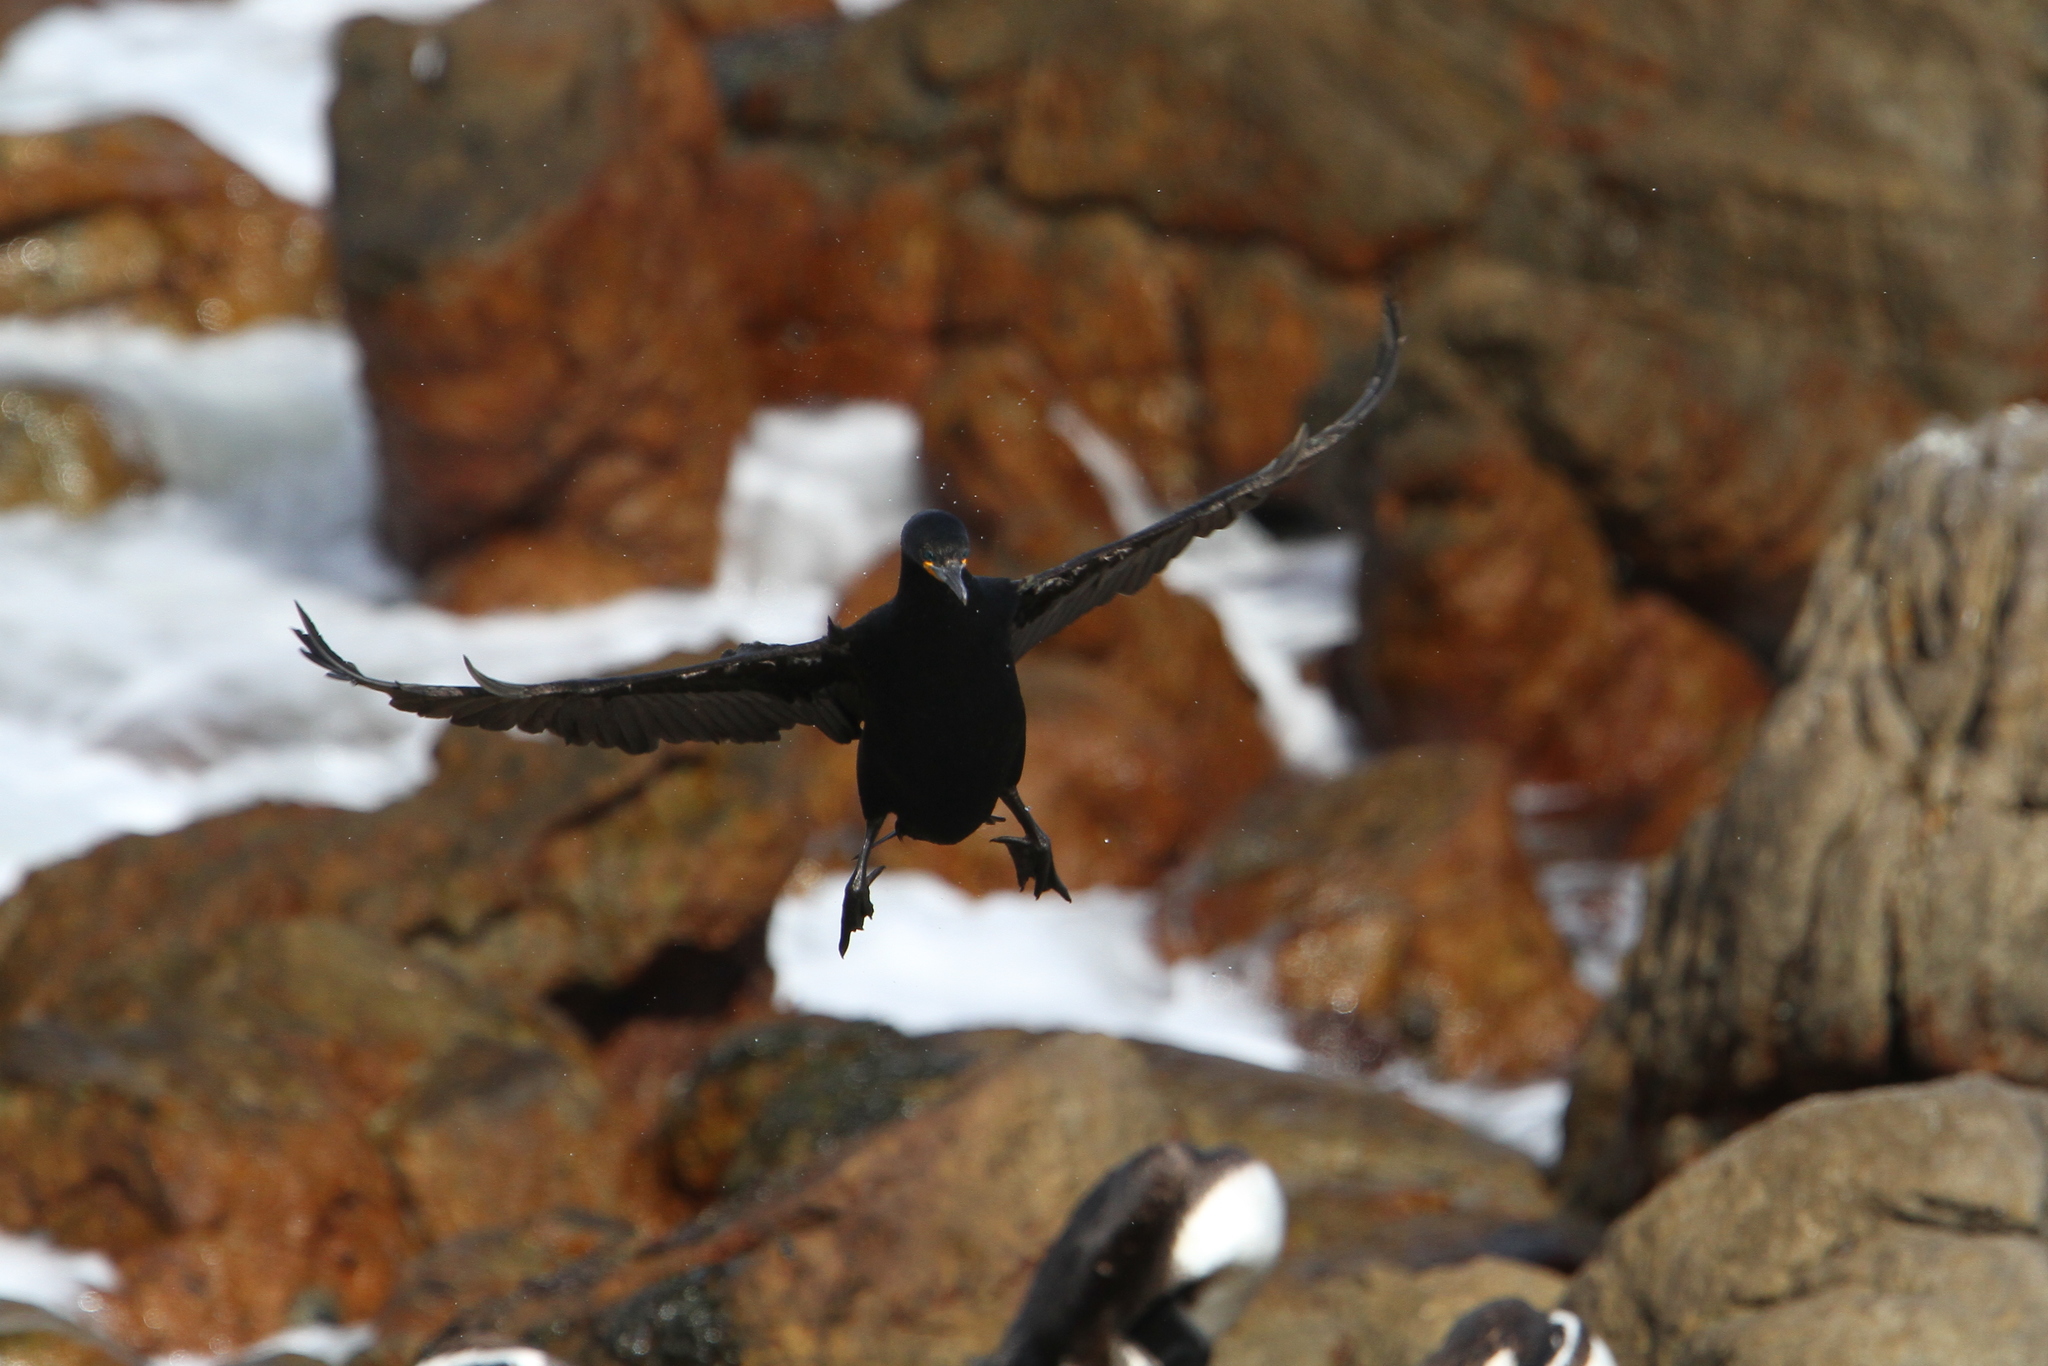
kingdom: Animalia
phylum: Chordata
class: Aves
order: Suliformes
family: Phalacrocoracidae
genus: Phalacrocorax
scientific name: Phalacrocorax capensis
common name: Cape cormorant
